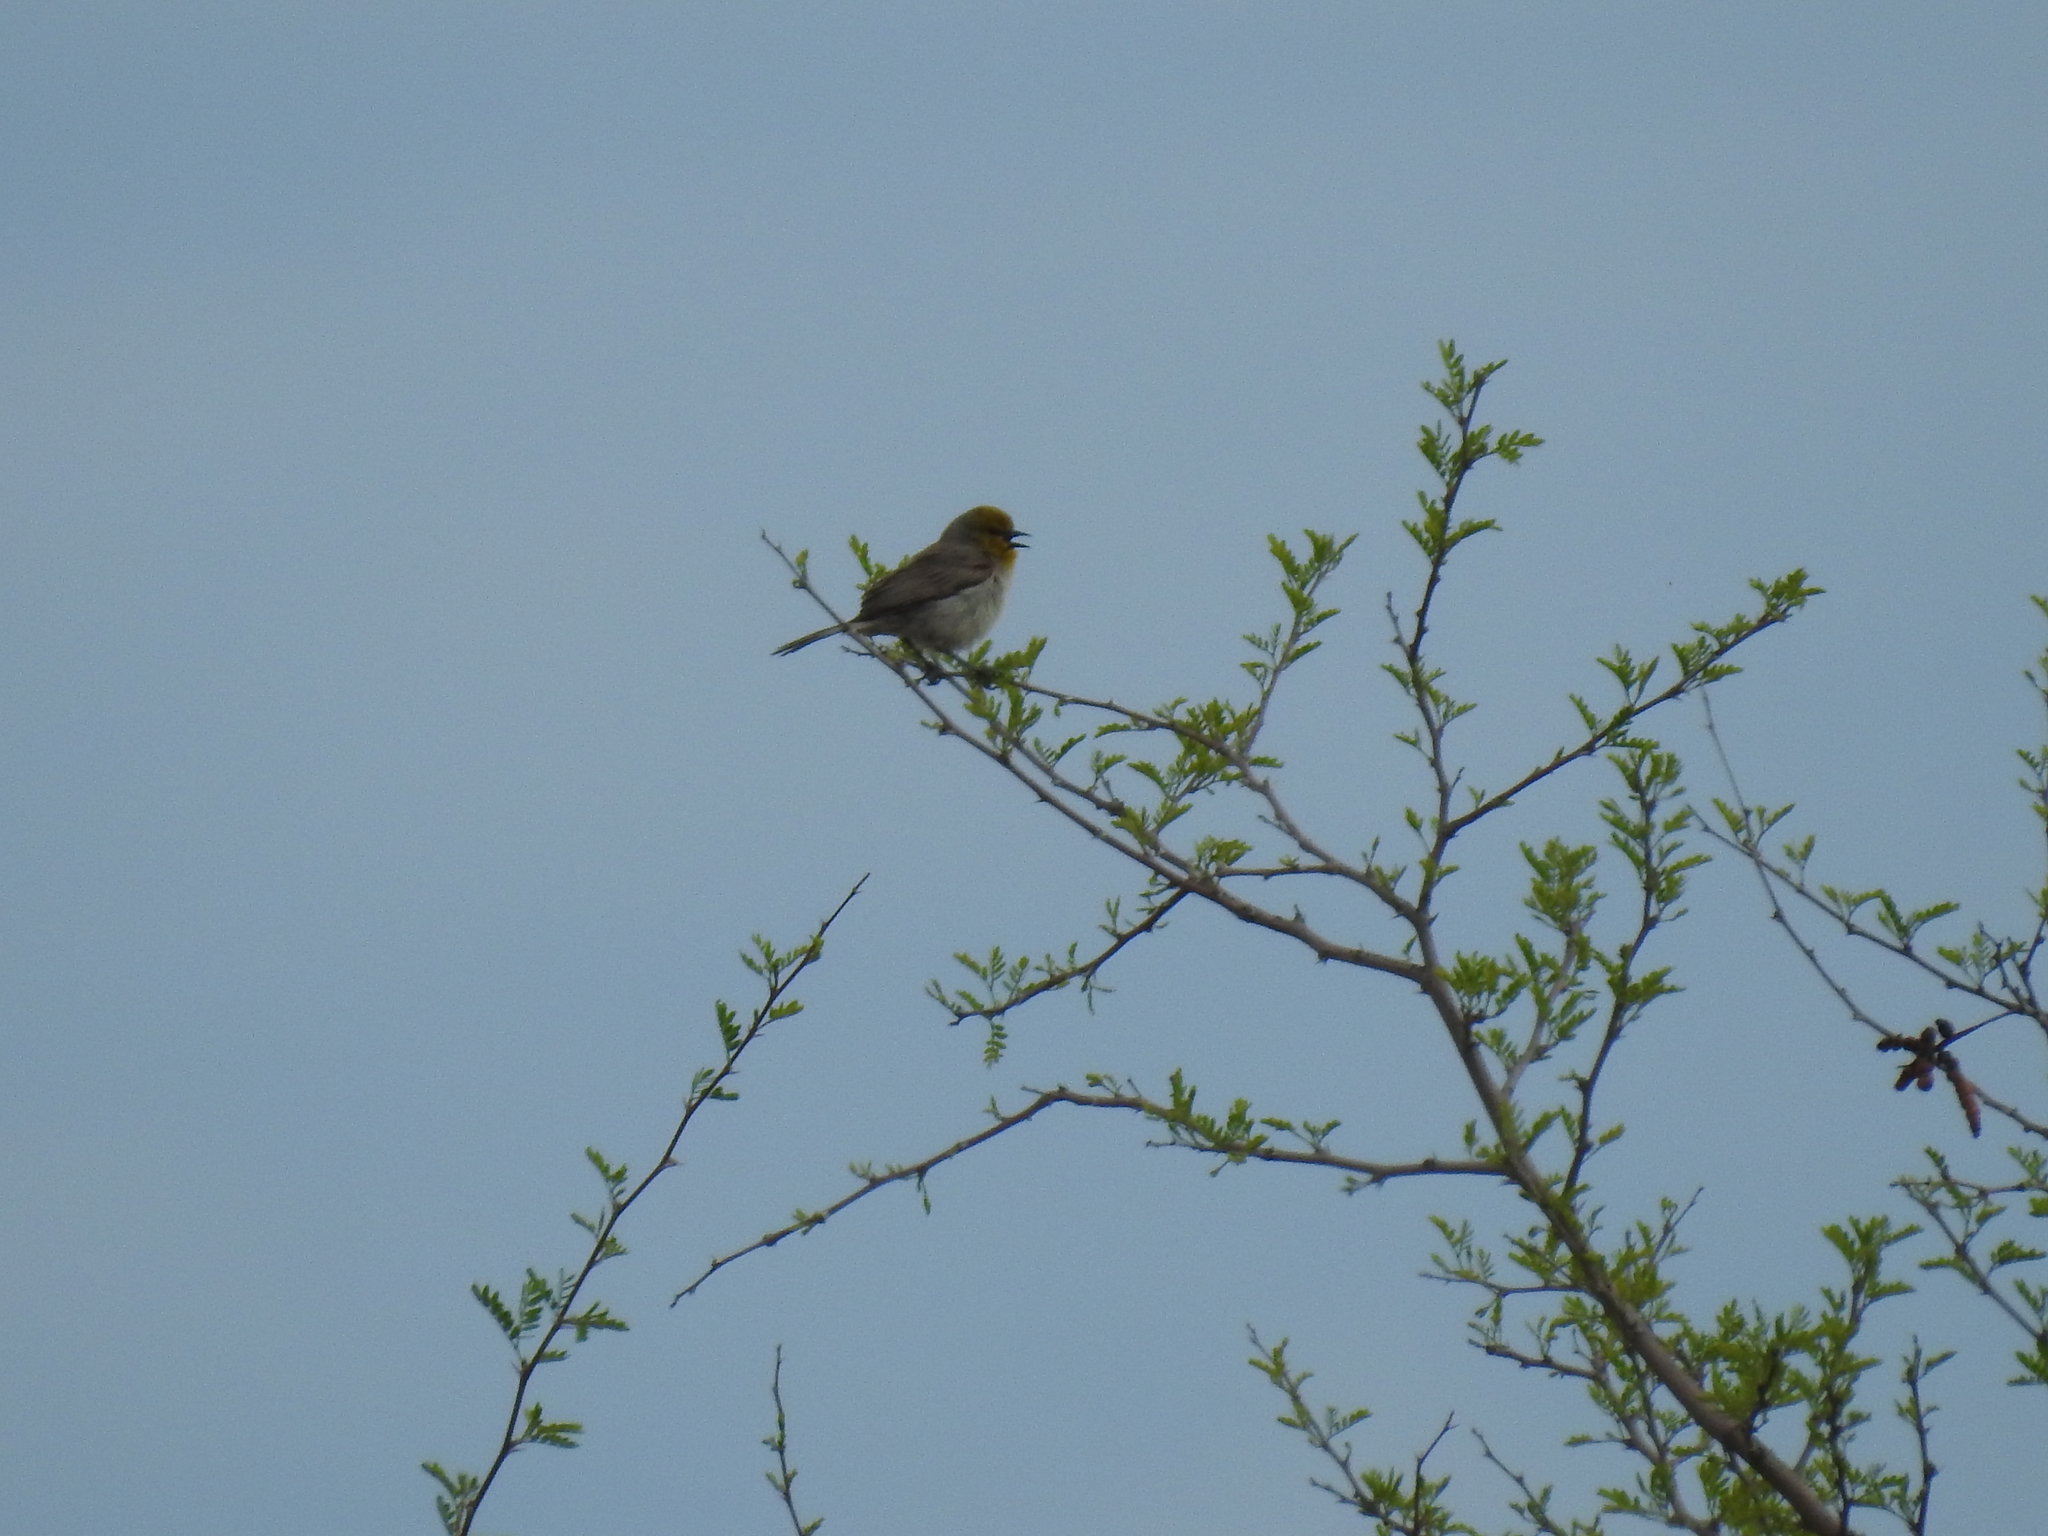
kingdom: Animalia
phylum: Chordata
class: Aves
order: Passeriformes
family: Remizidae
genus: Auriparus
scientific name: Auriparus flaviceps
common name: Verdin
